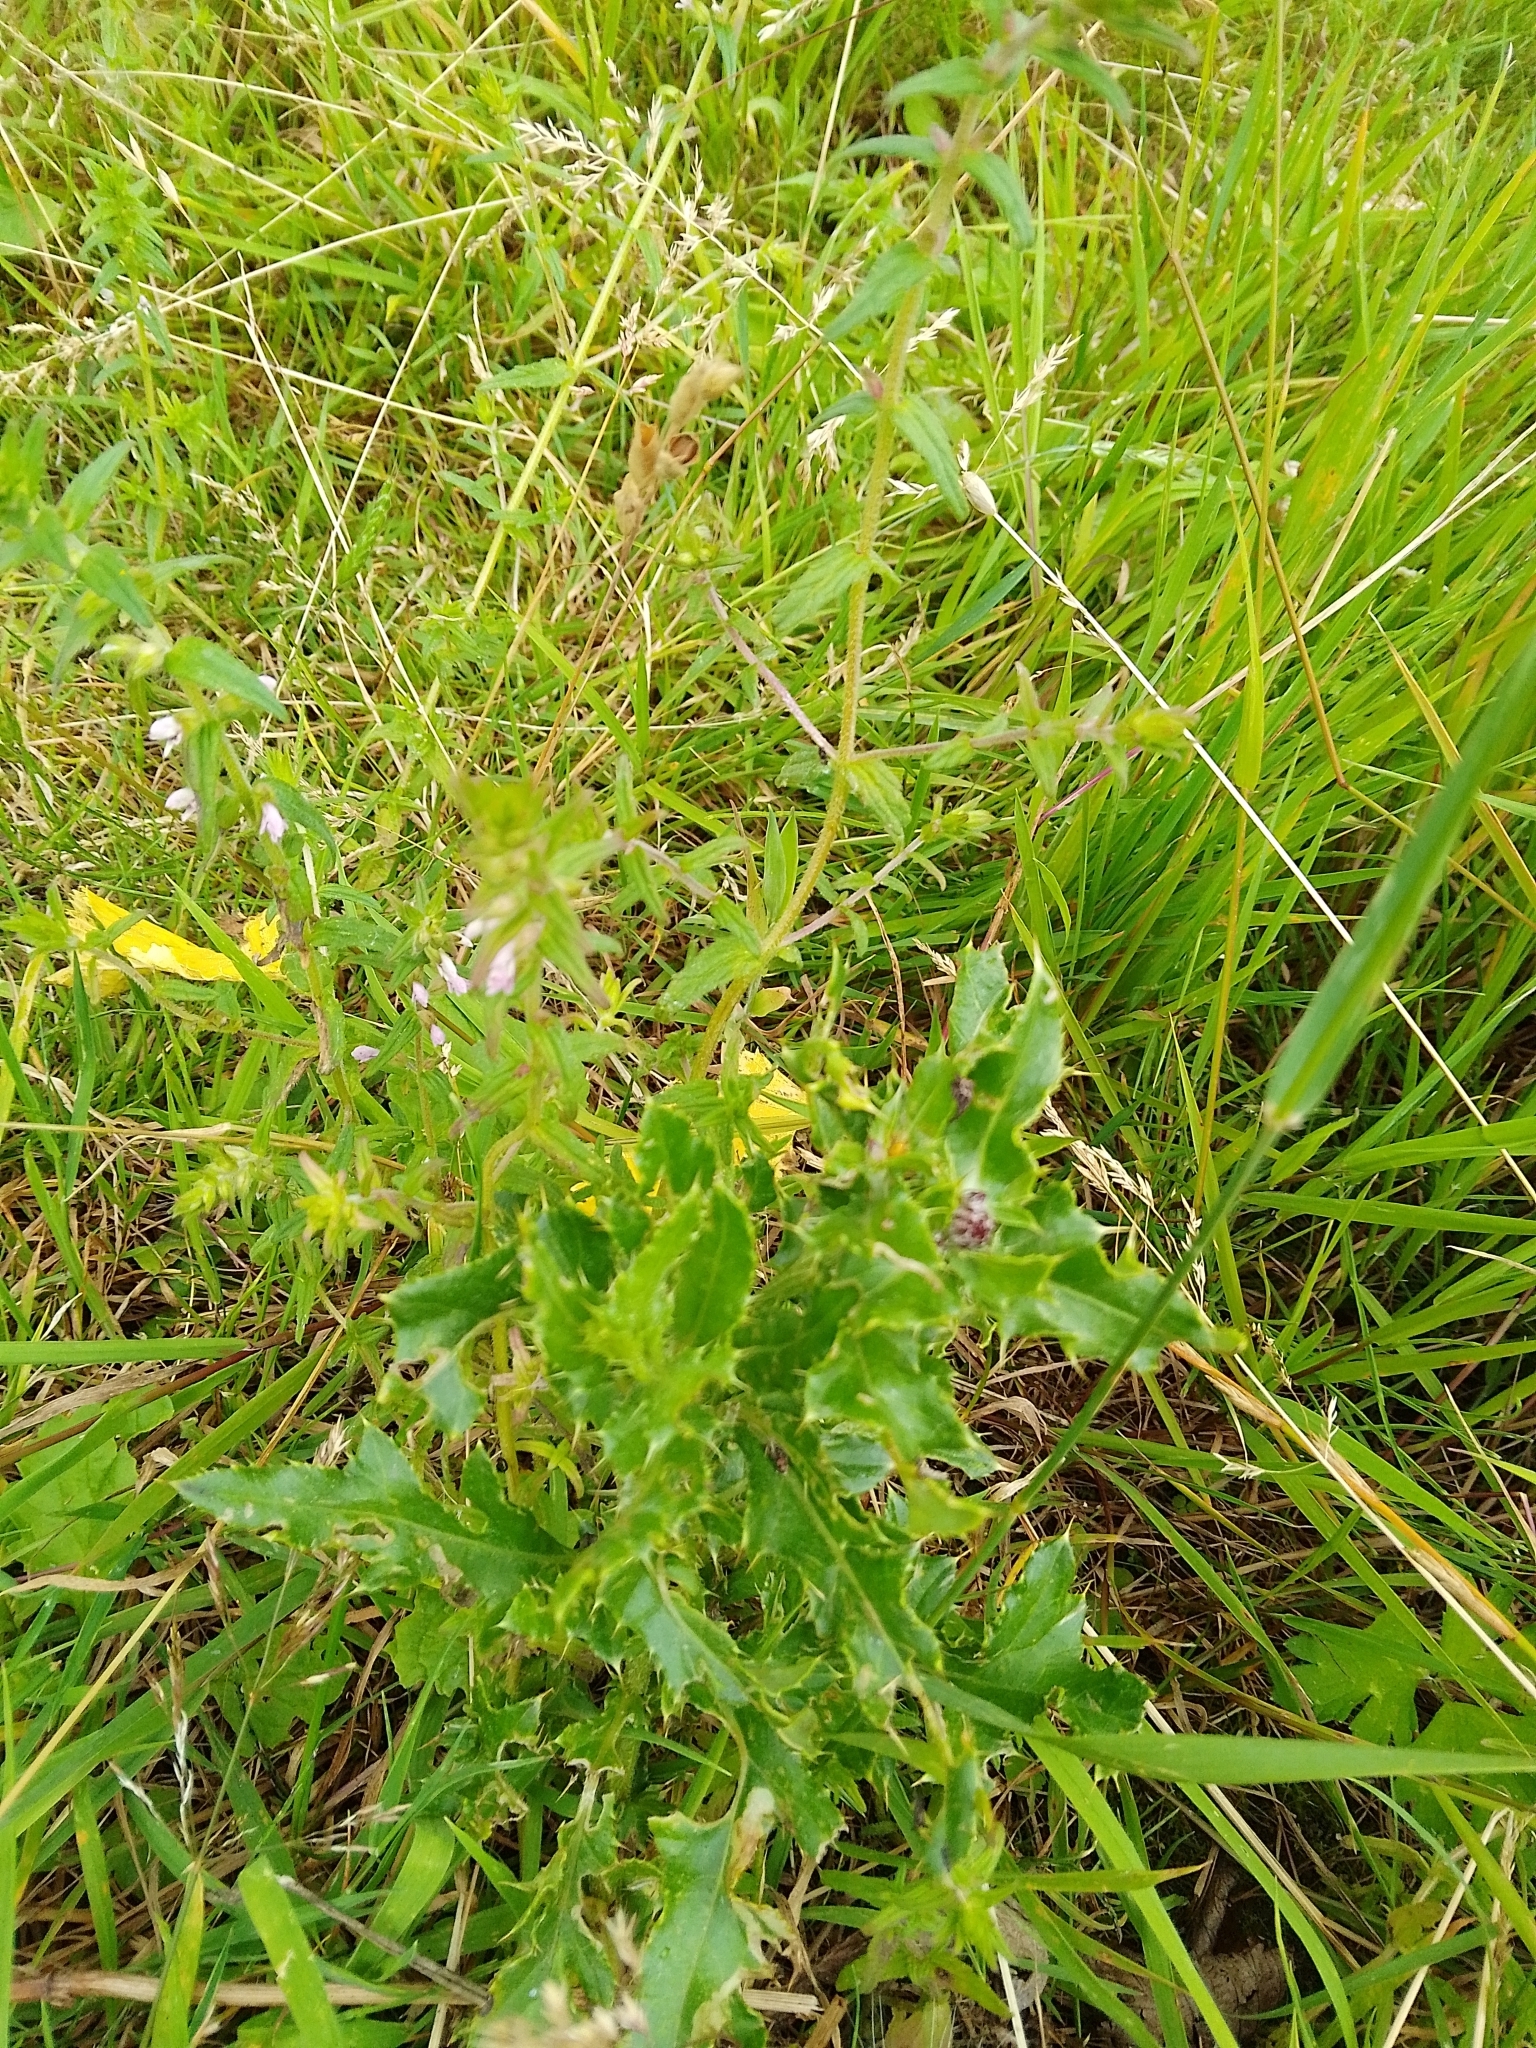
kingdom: Plantae
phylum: Tracheophyta
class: Magnoliopsida
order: Lamiales
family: Orobanchaceae
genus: Odontites
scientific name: Odontites vernus
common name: Red bartsia
